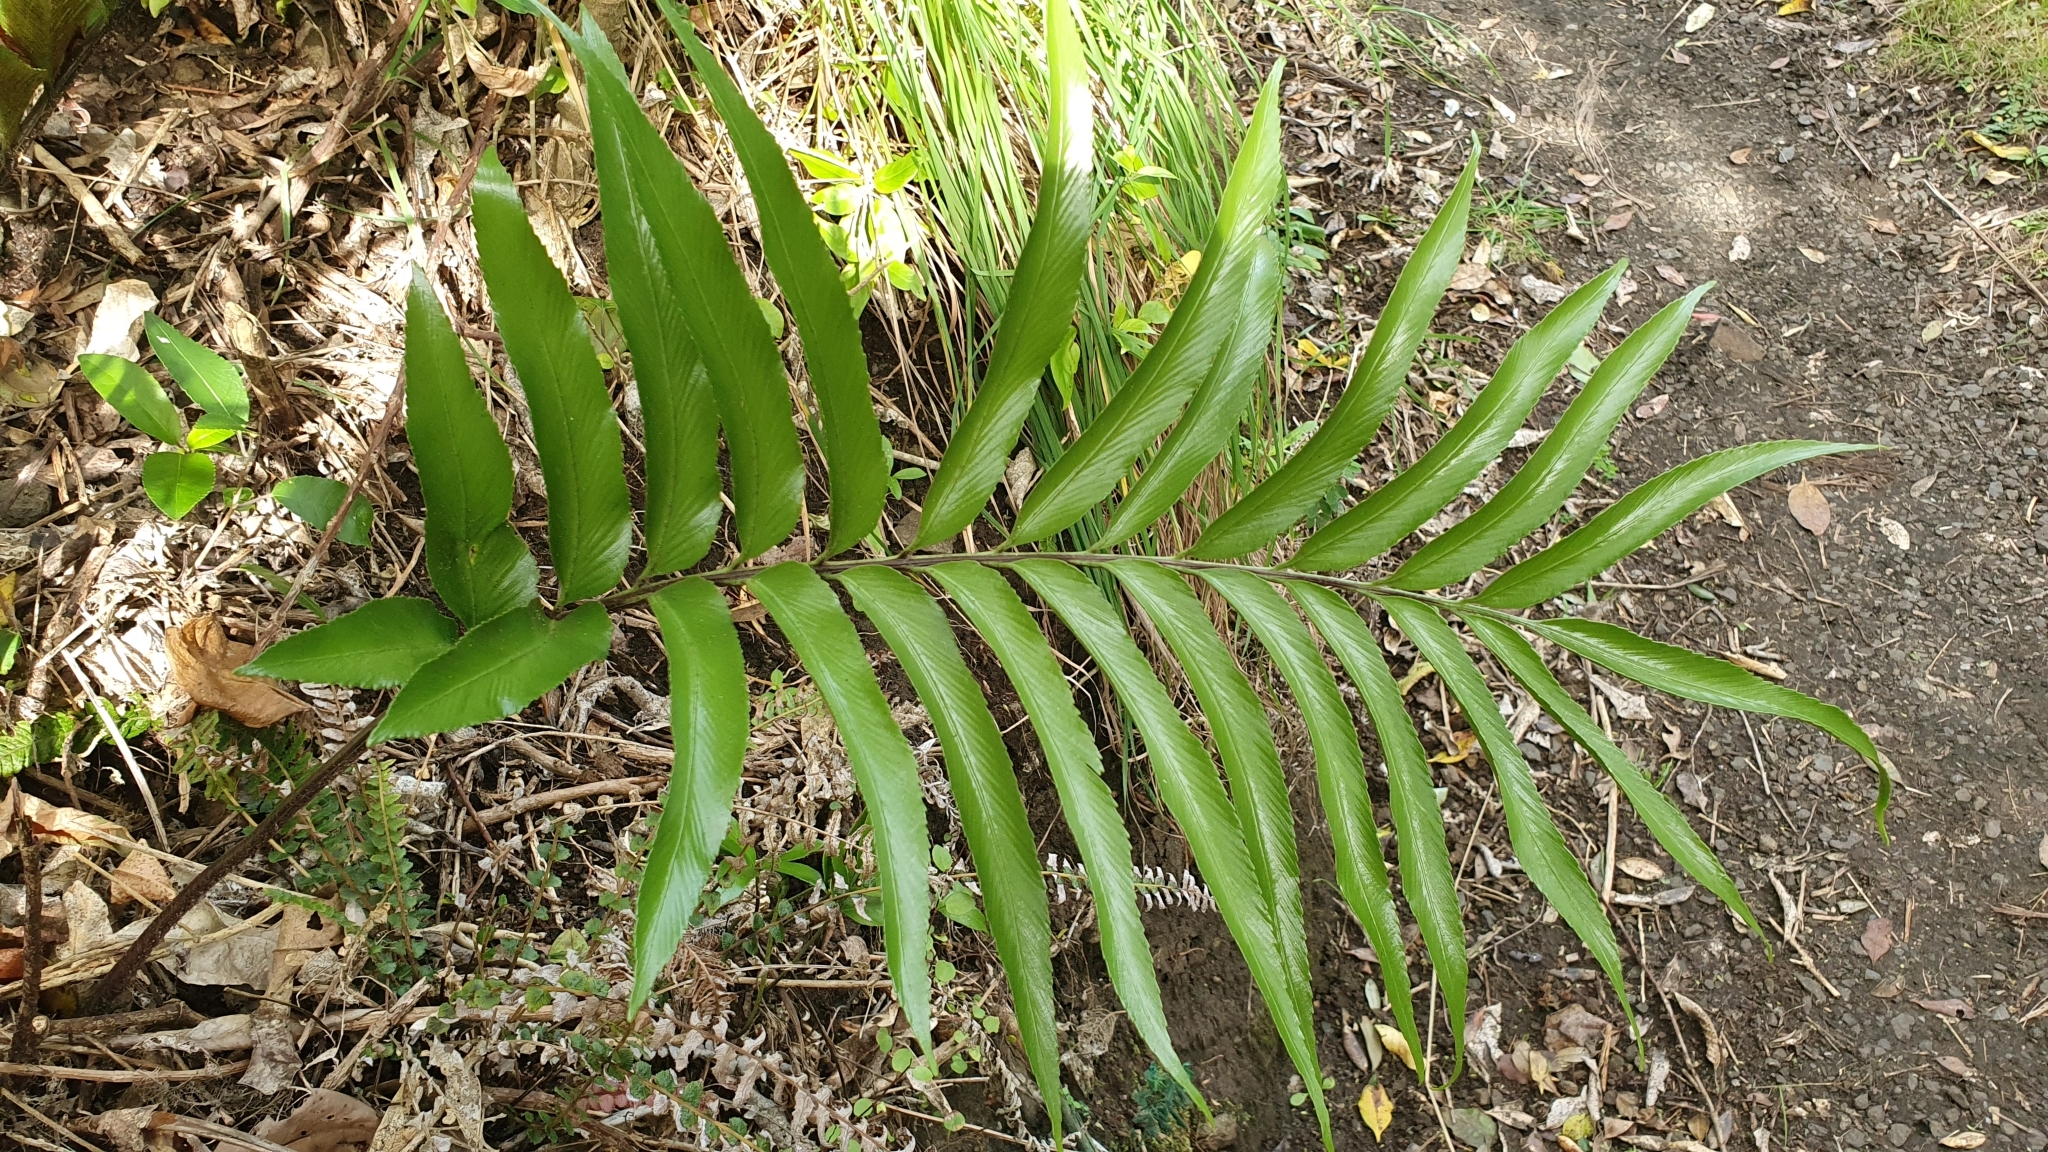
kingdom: Plantae
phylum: Tracheophyta
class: Polypodiopsida
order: Polypodiales
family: Aspleniaceae
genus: Asplenium
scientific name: Asplenium oblongifolium
